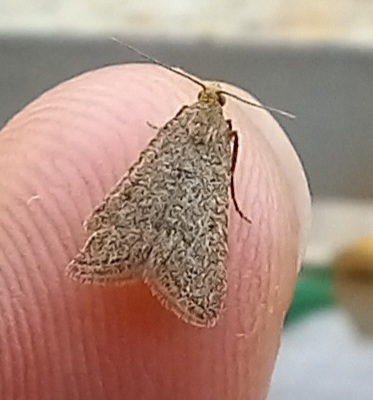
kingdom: Animalia
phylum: Arthropoda
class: Insecta
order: Lepidoptera
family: Pyralidae
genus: Bostra
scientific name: Bostra obsoletalis
